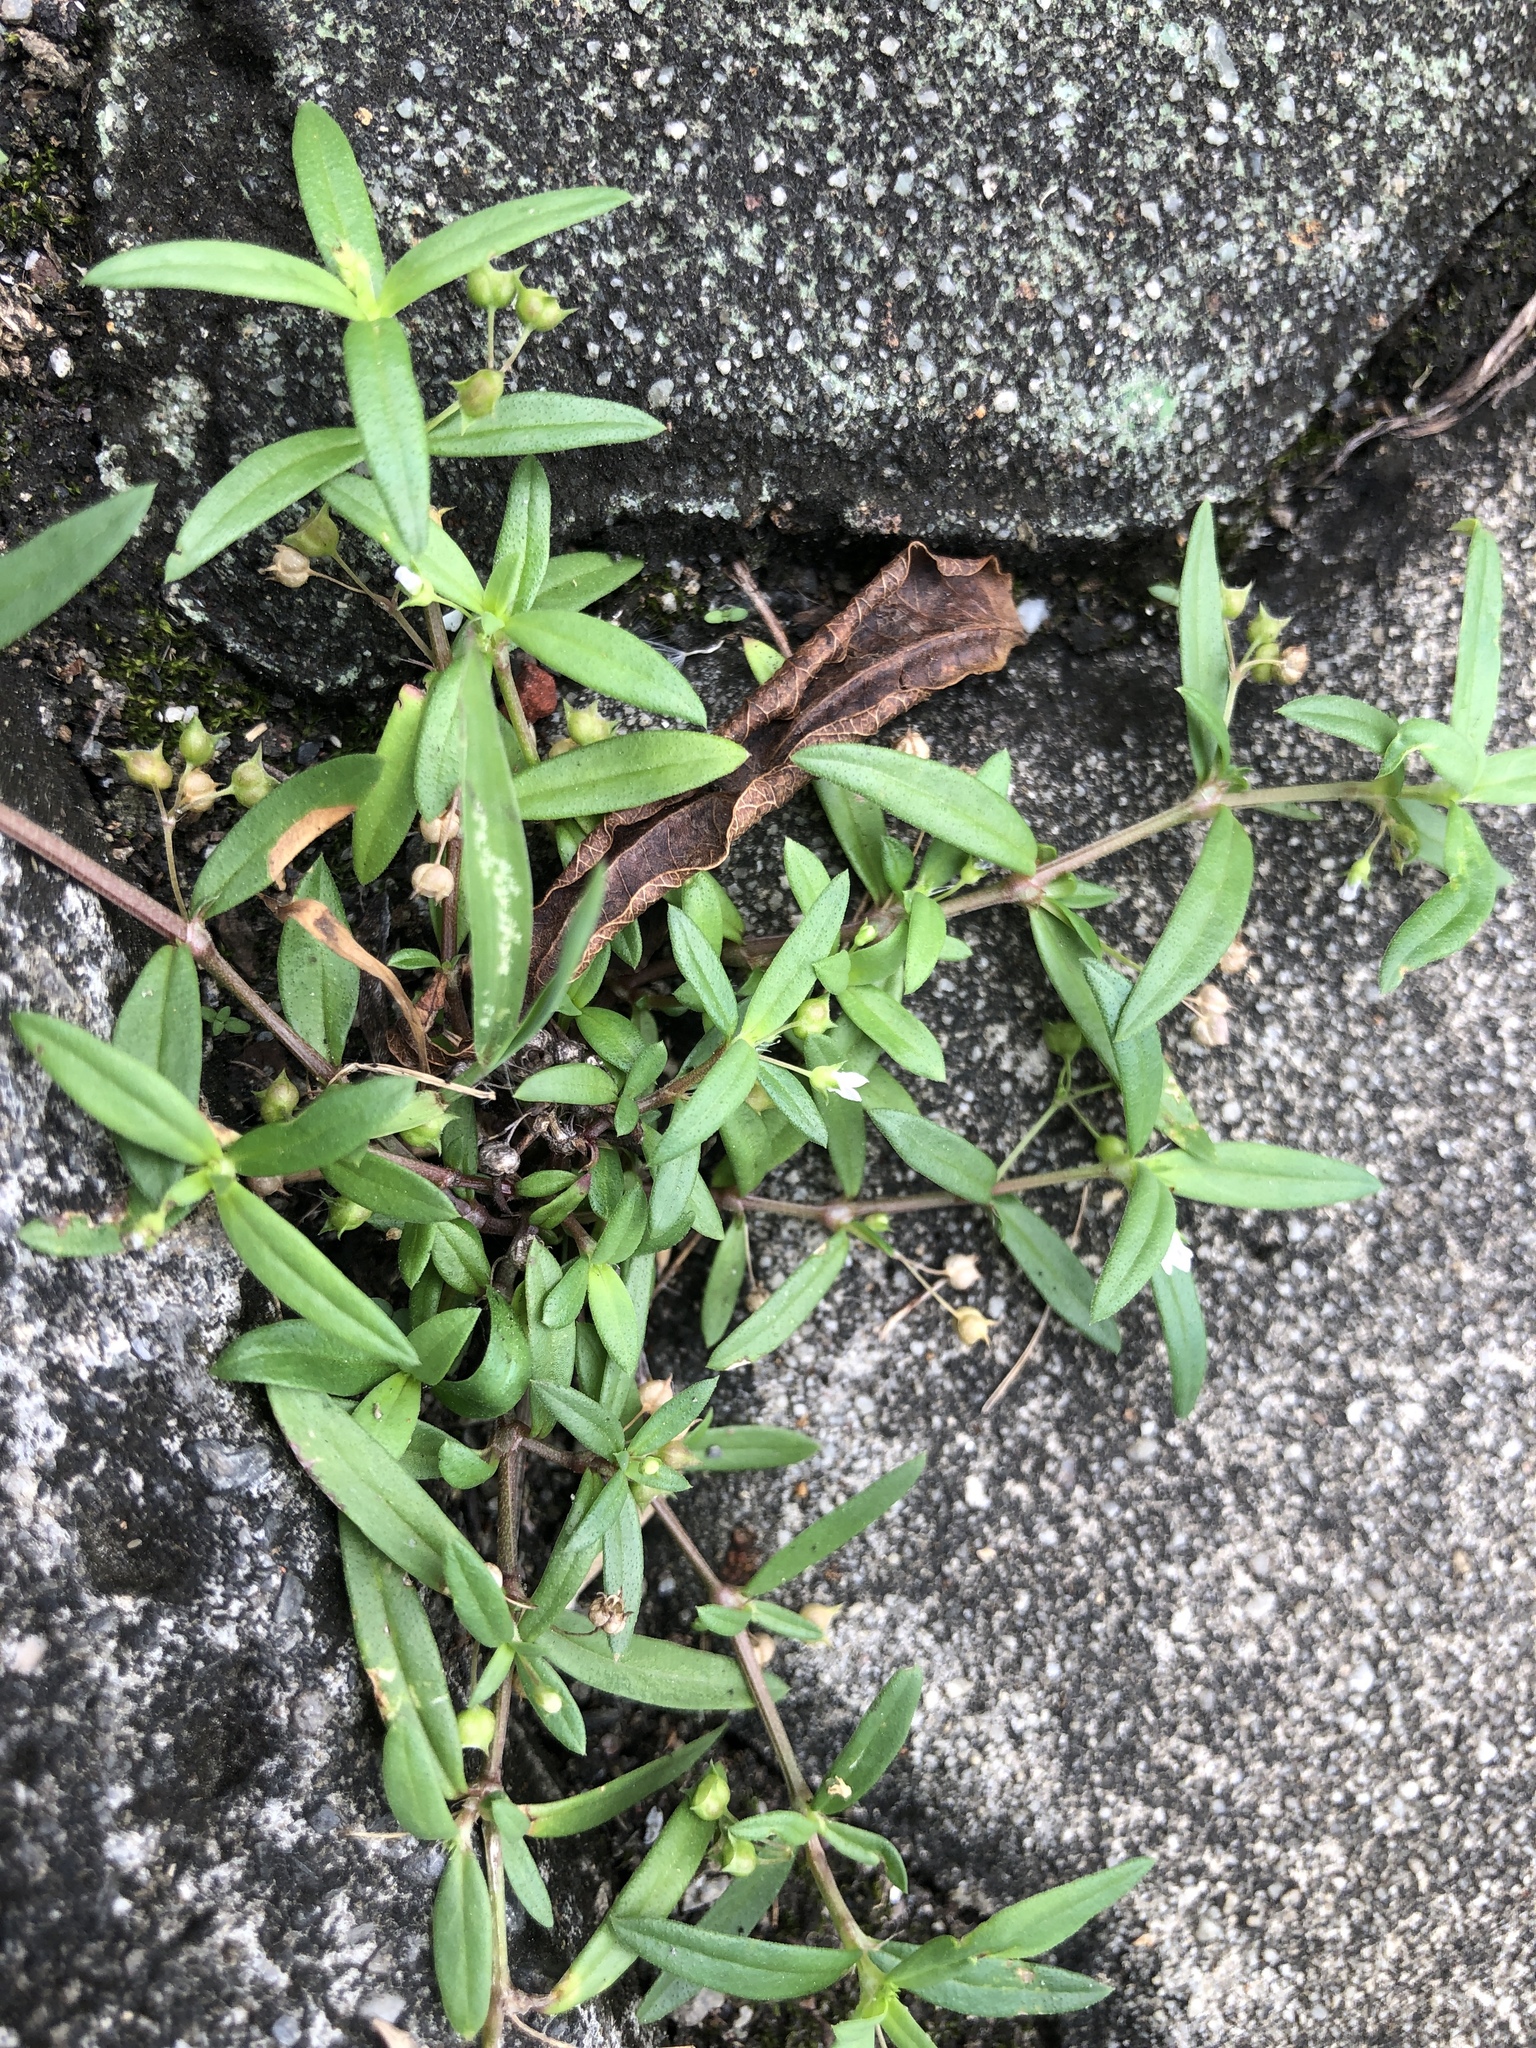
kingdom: Plantae
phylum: Tracheophyta
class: Magnoliopsida
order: Gentianales
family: Rubiaceae
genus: Oldenlandia
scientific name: Oldenlandia corymbosa
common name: Flat-top mille graines
